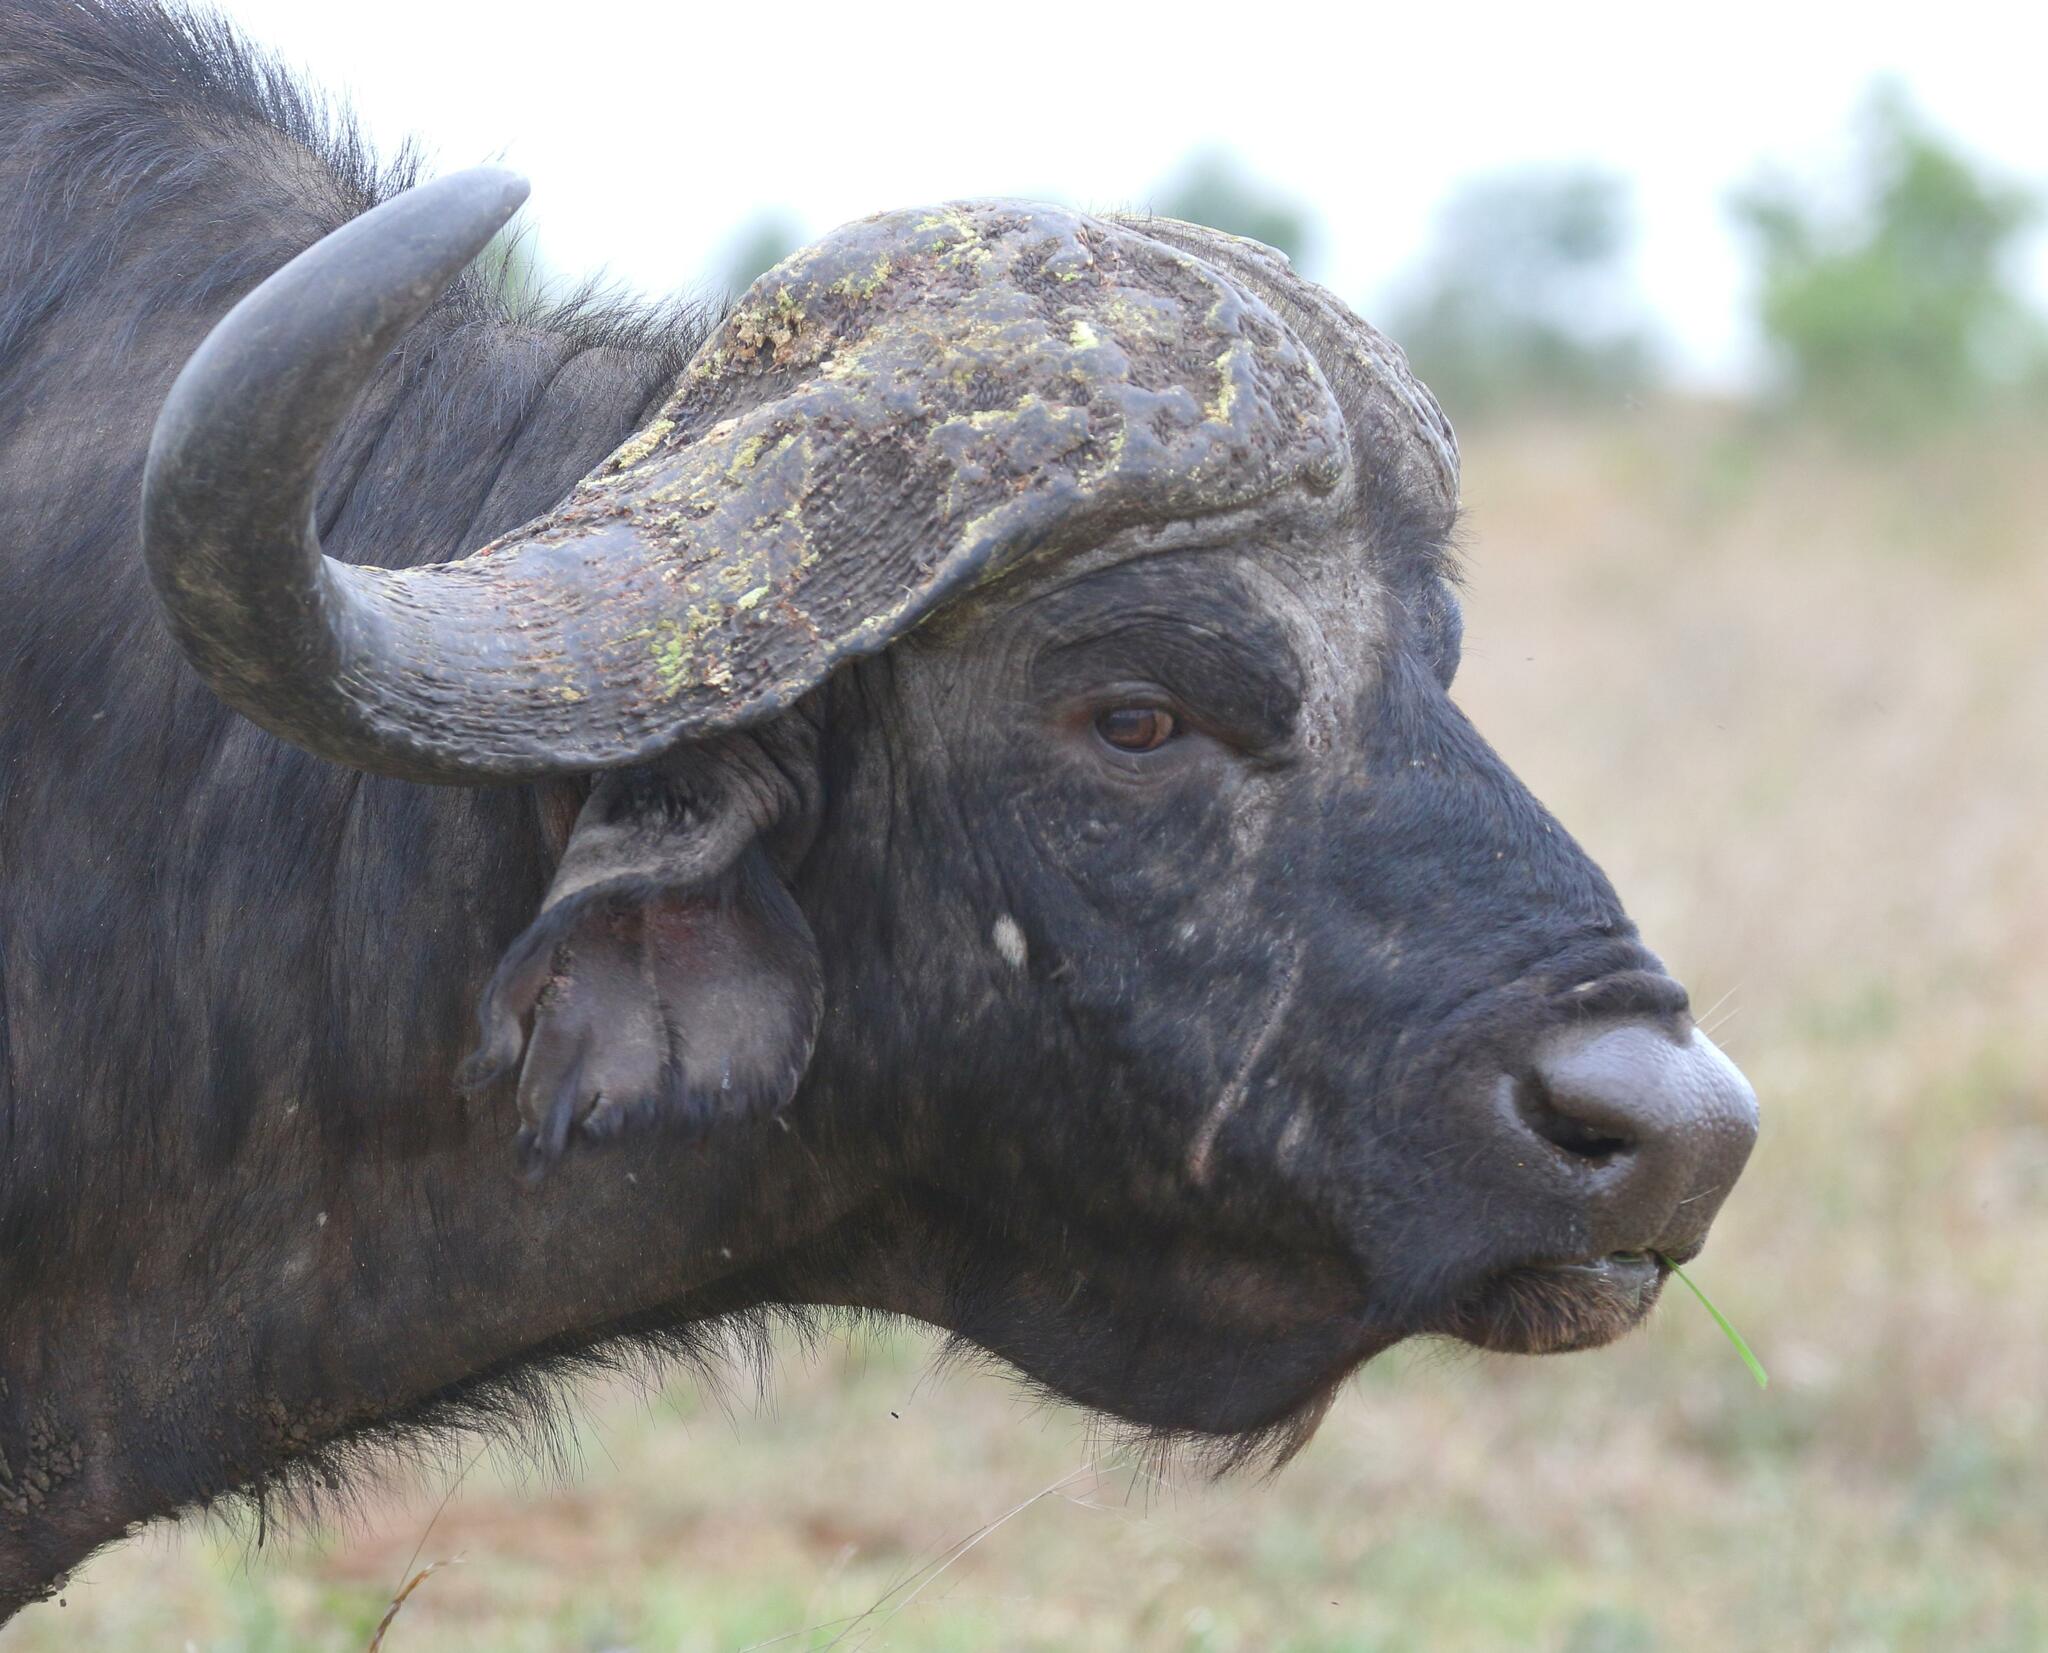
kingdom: Animalia
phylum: Chordata
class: Mammalia
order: Artiodactyla
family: Bovidae
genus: Syncerus
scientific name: Syncerus caffer
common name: African buffalo
